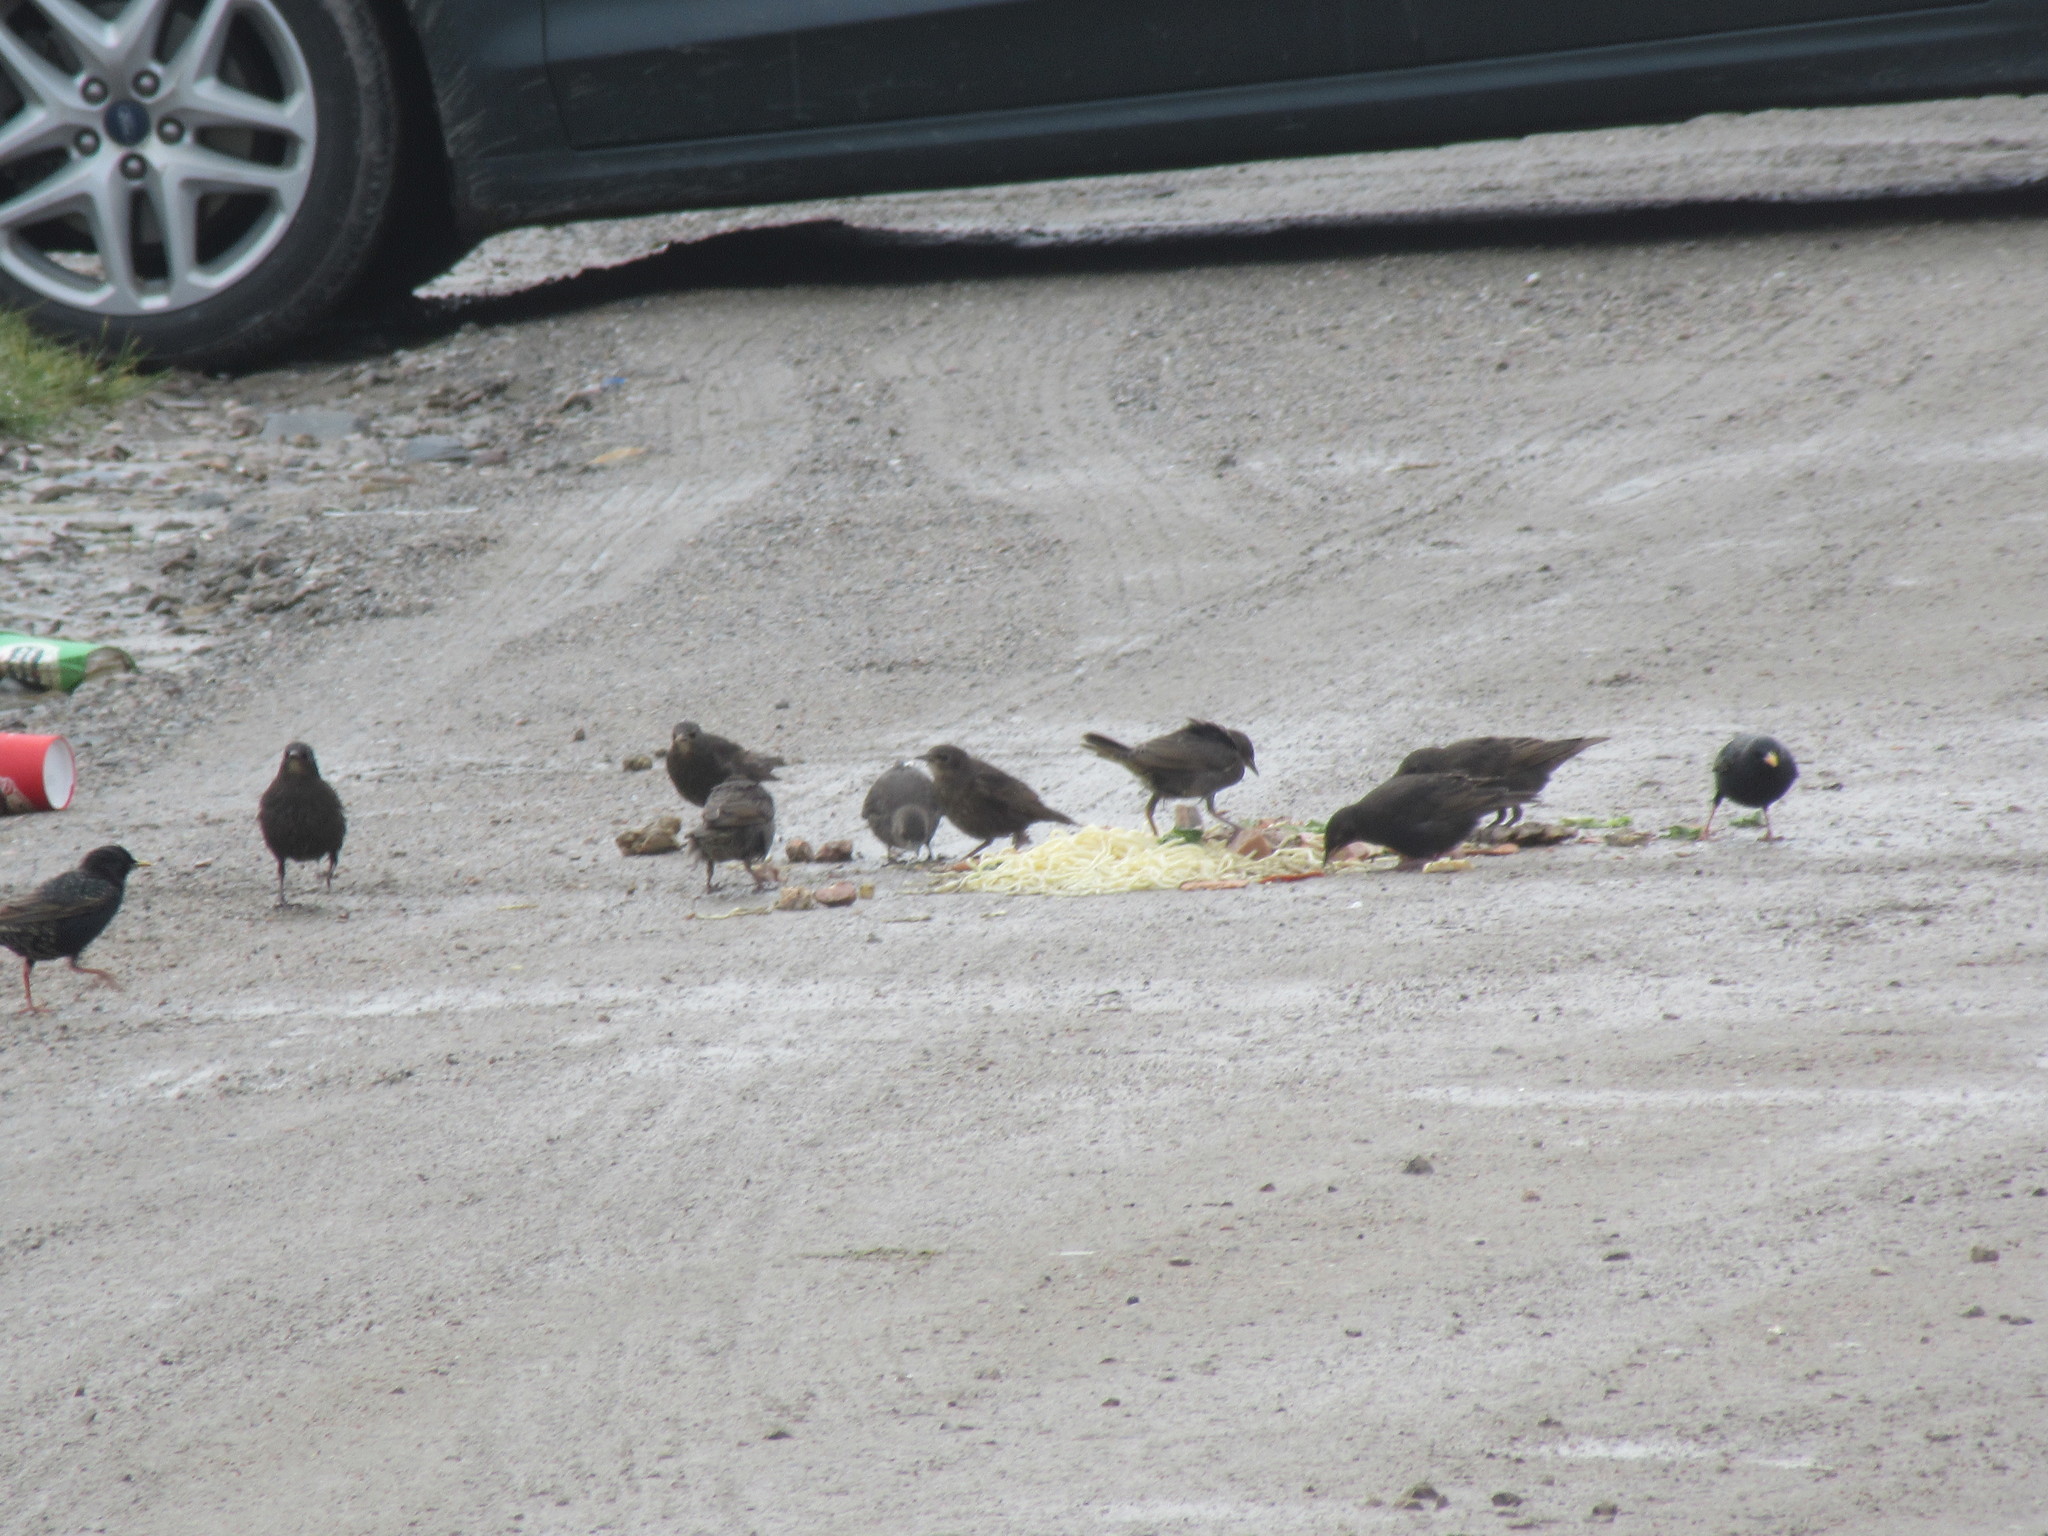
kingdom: Animalia
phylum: Chordata
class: Aves
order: Passeriformes
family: Sturnidae
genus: Sturnus
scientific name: Sturnus vulgaris
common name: Common starling
